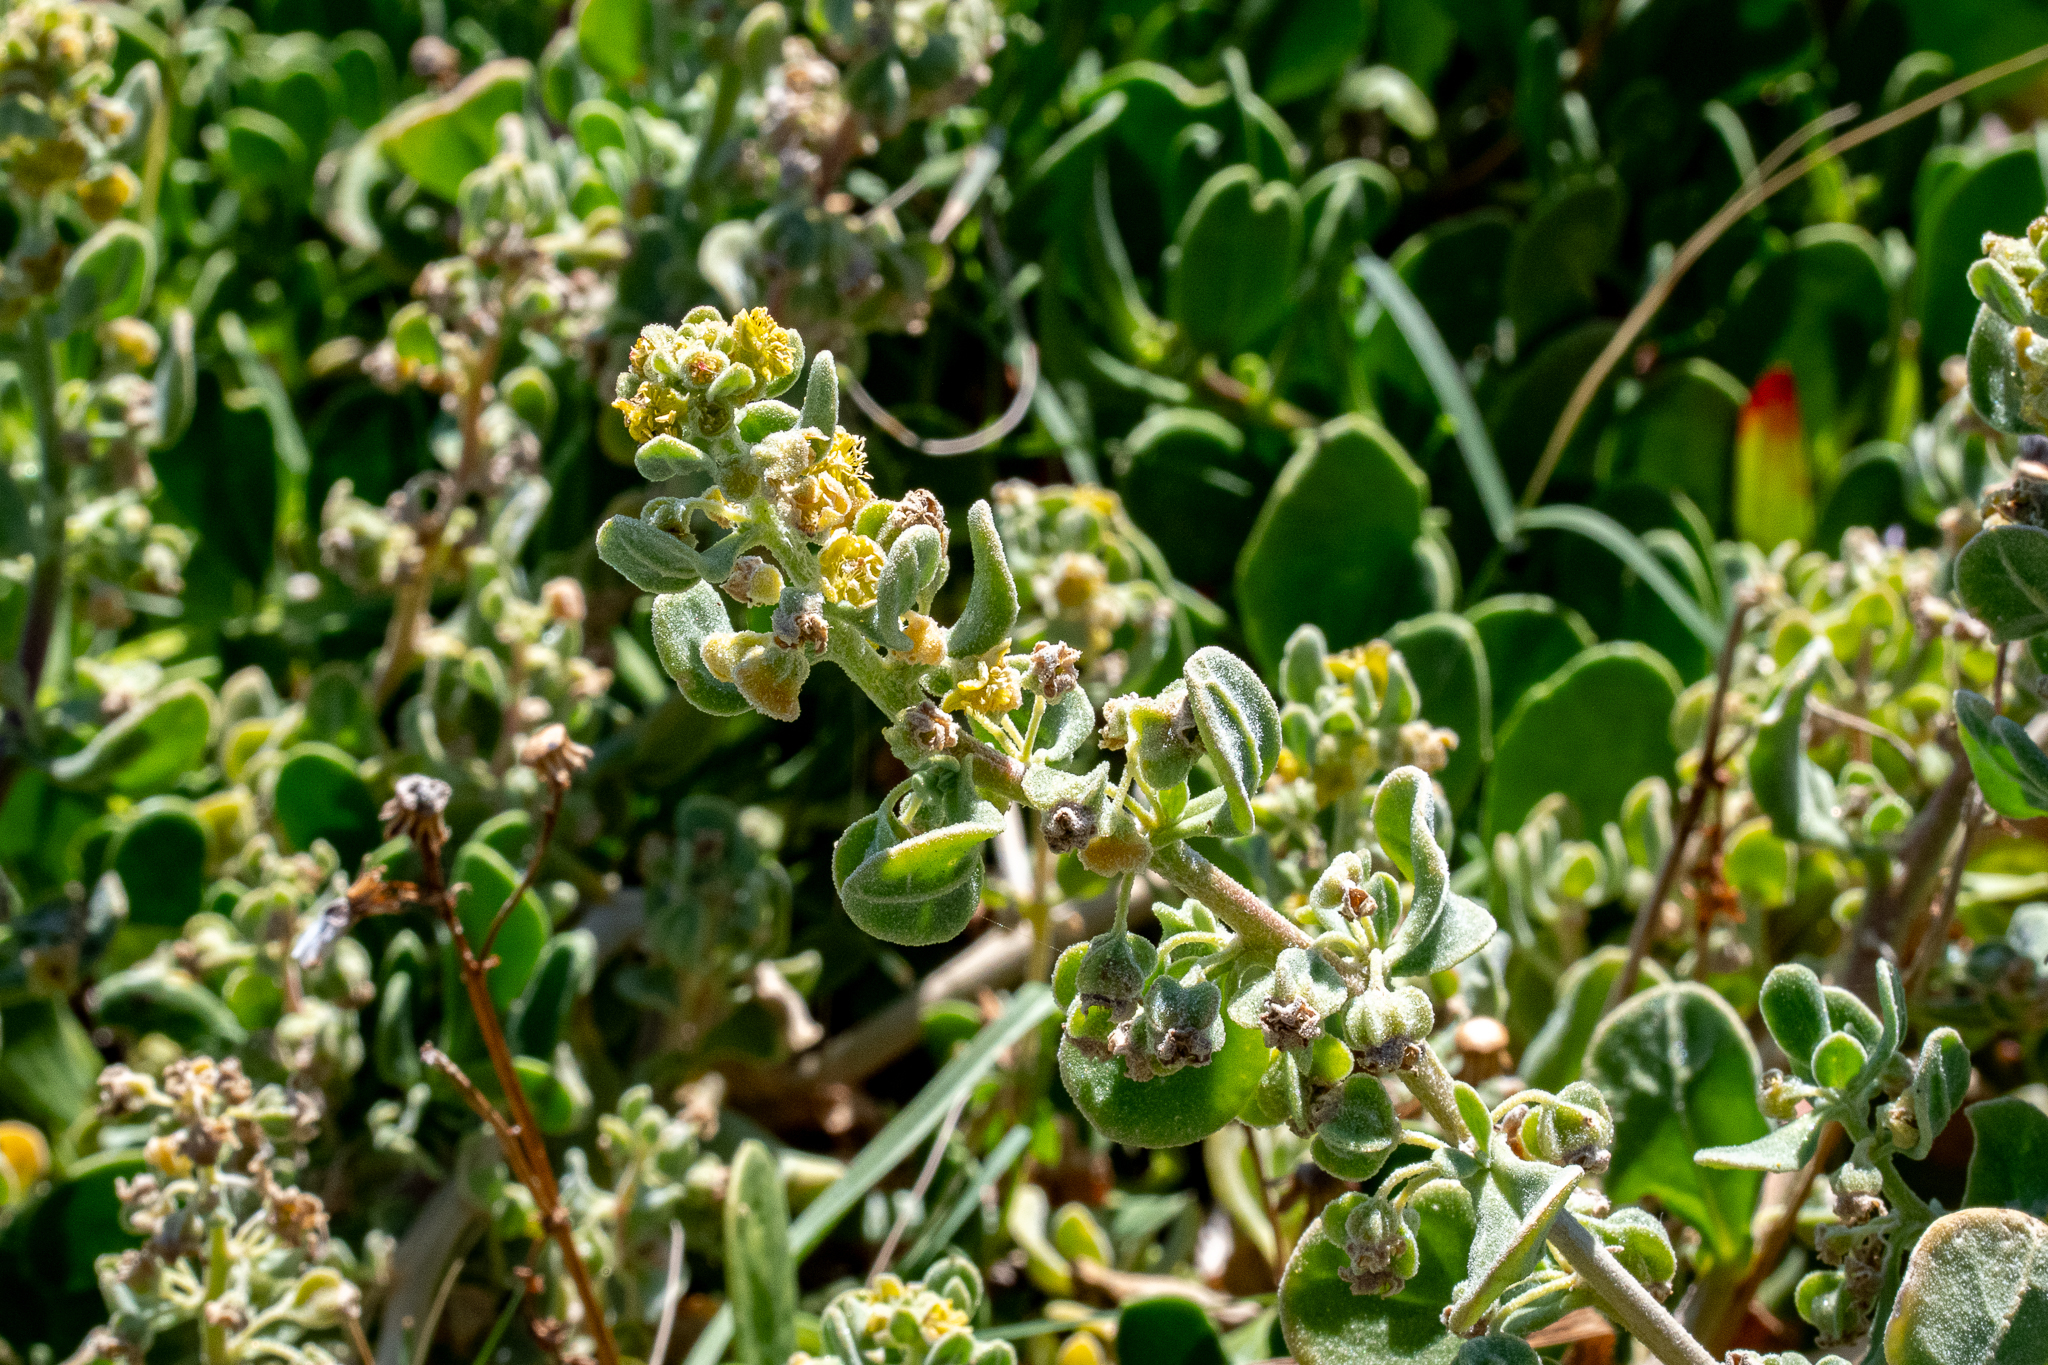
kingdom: Plantae
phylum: Tracheophyta
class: Magnoliopsida
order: Caryophyllales
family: Aizoaceae
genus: Tetragonia
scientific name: Tetragonia decumbens
